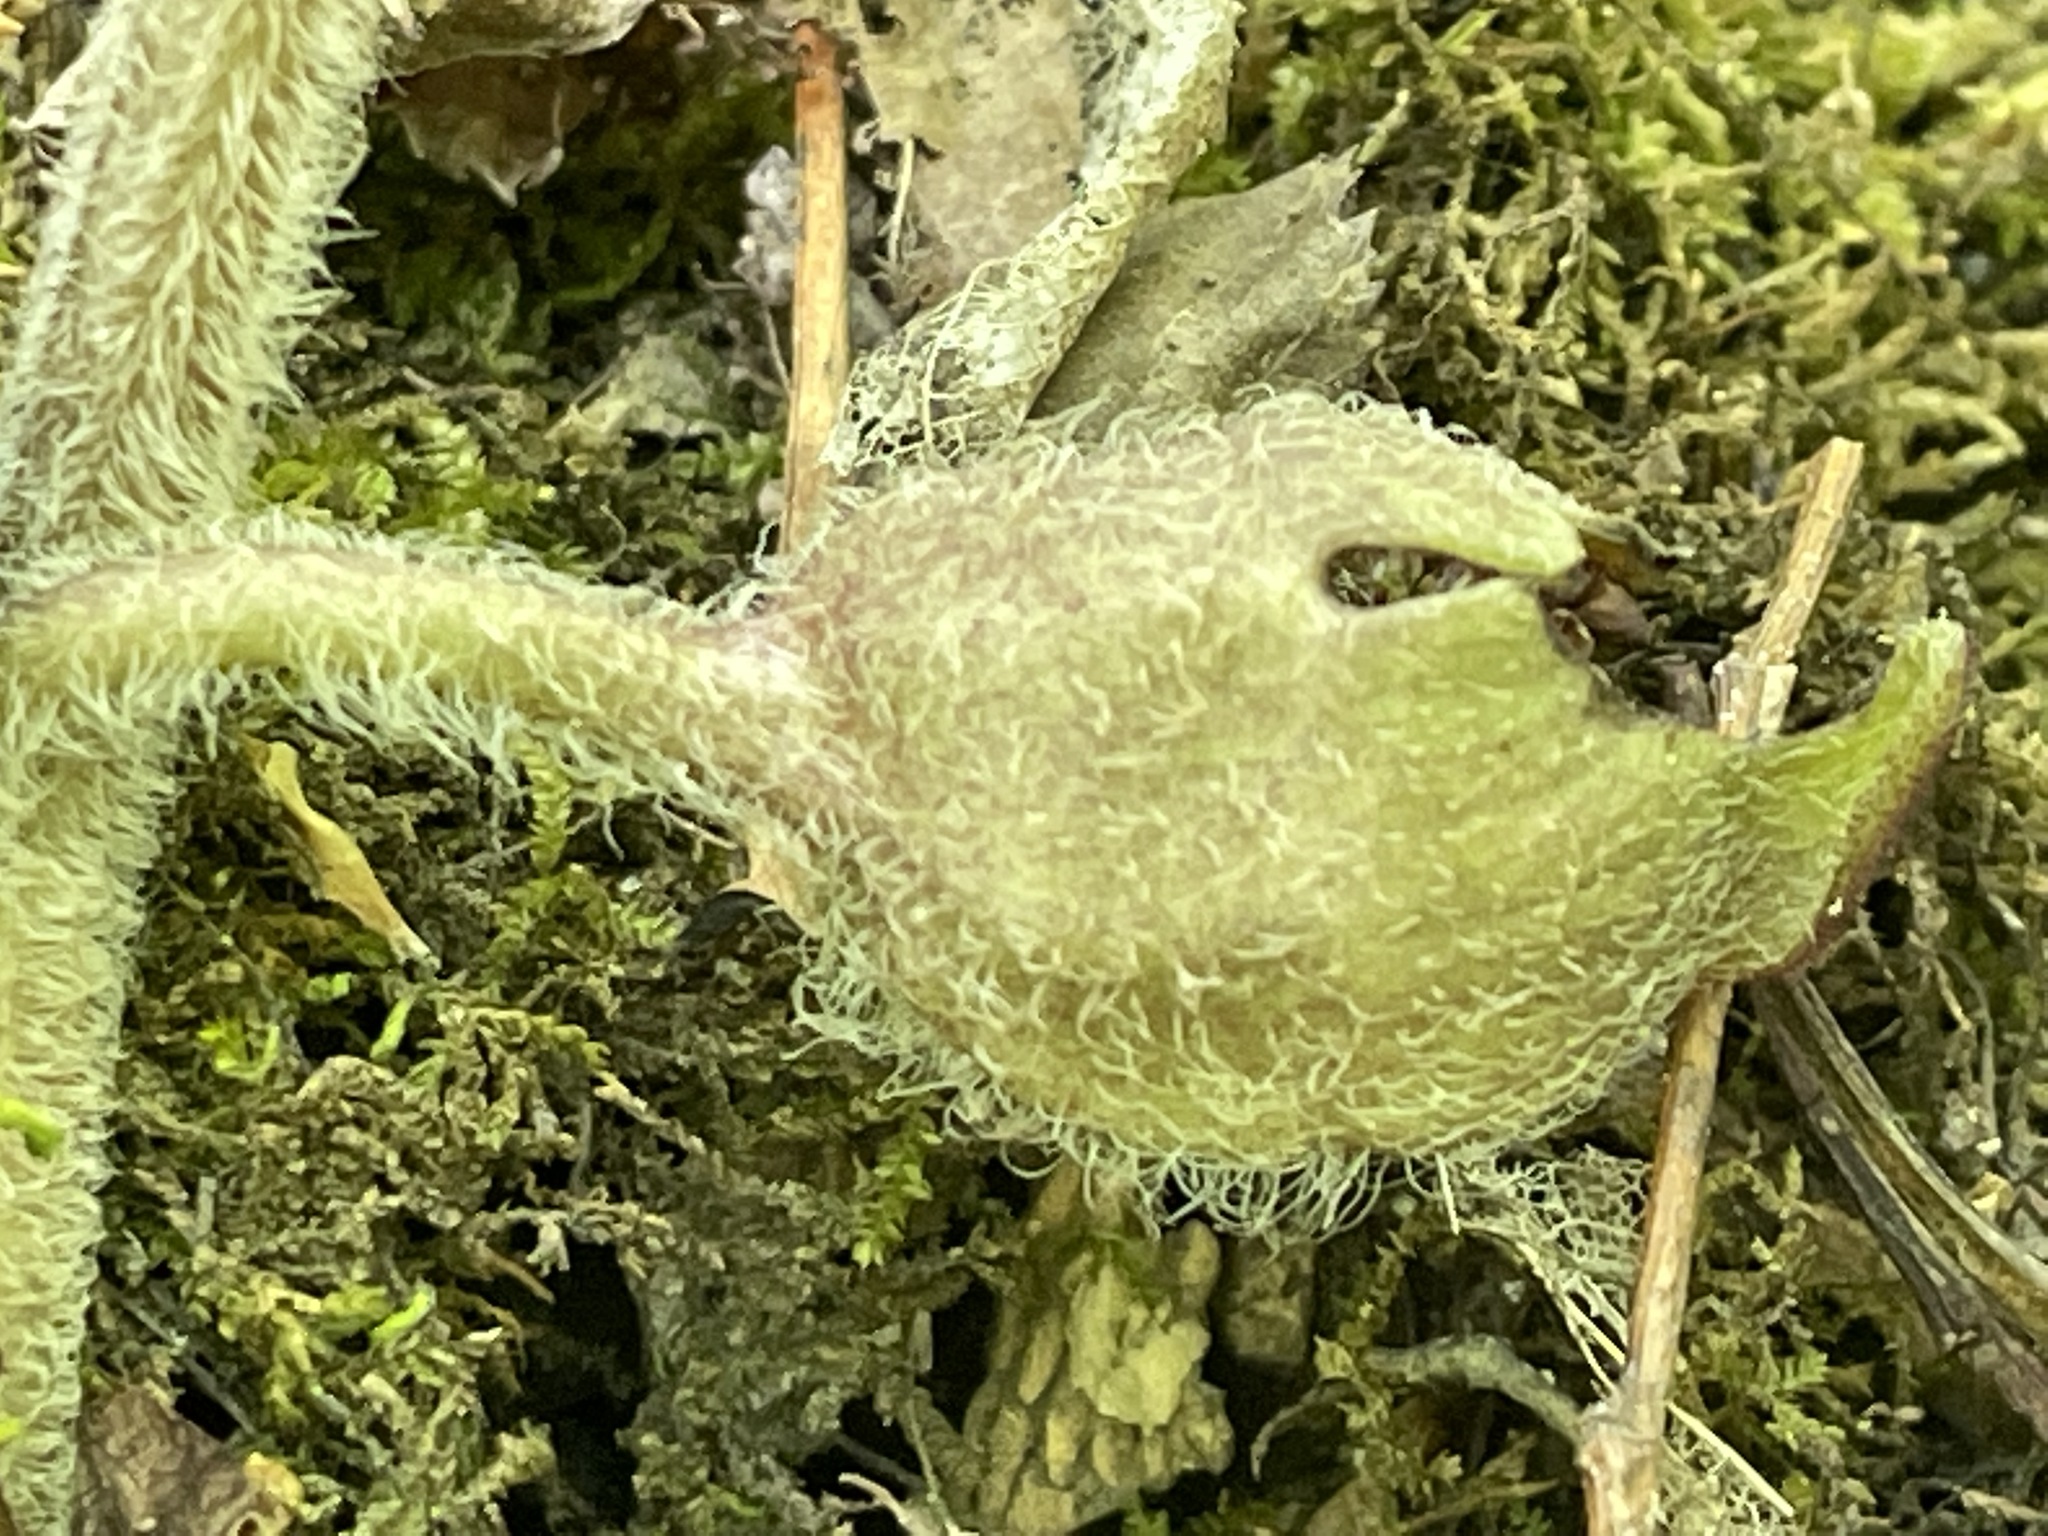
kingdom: Plantae
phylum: Tracheophyta
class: Magnoliopsida
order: Piperales
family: Aristolochiaceae
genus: Asarum
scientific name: Asarum canadense
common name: Wild ginger
